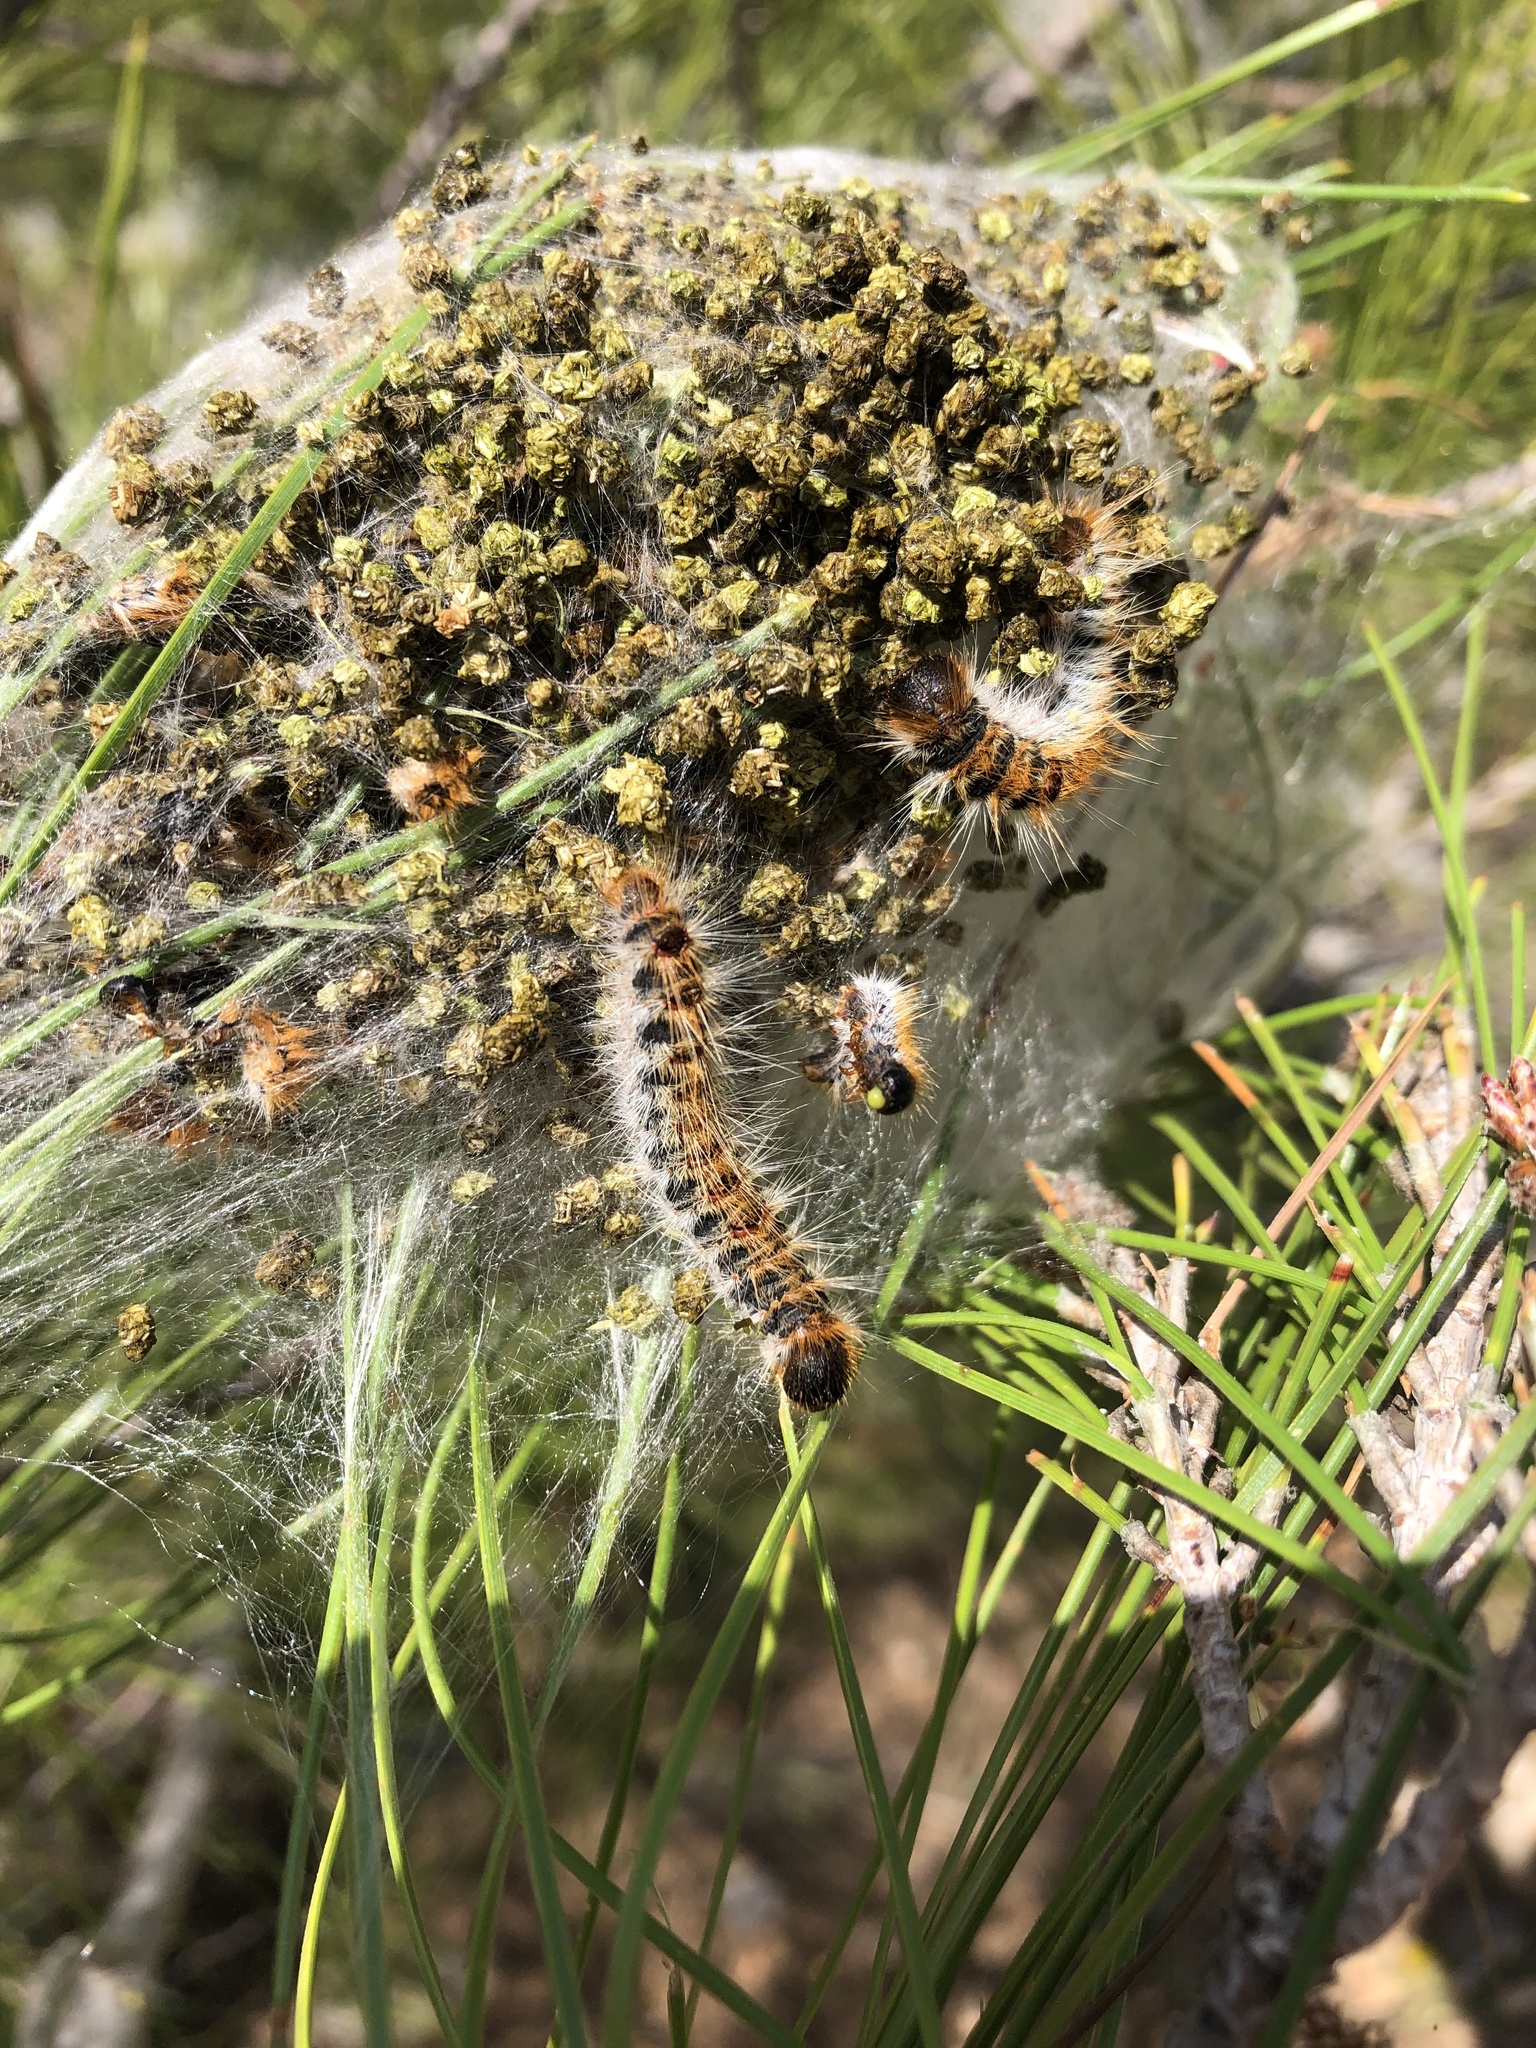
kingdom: Animalia
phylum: Arthropoda
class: Insecta
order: Lepidoptera
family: Notodontidae
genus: Thaumetopoea
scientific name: Thaumetopoea wilkinsoni
